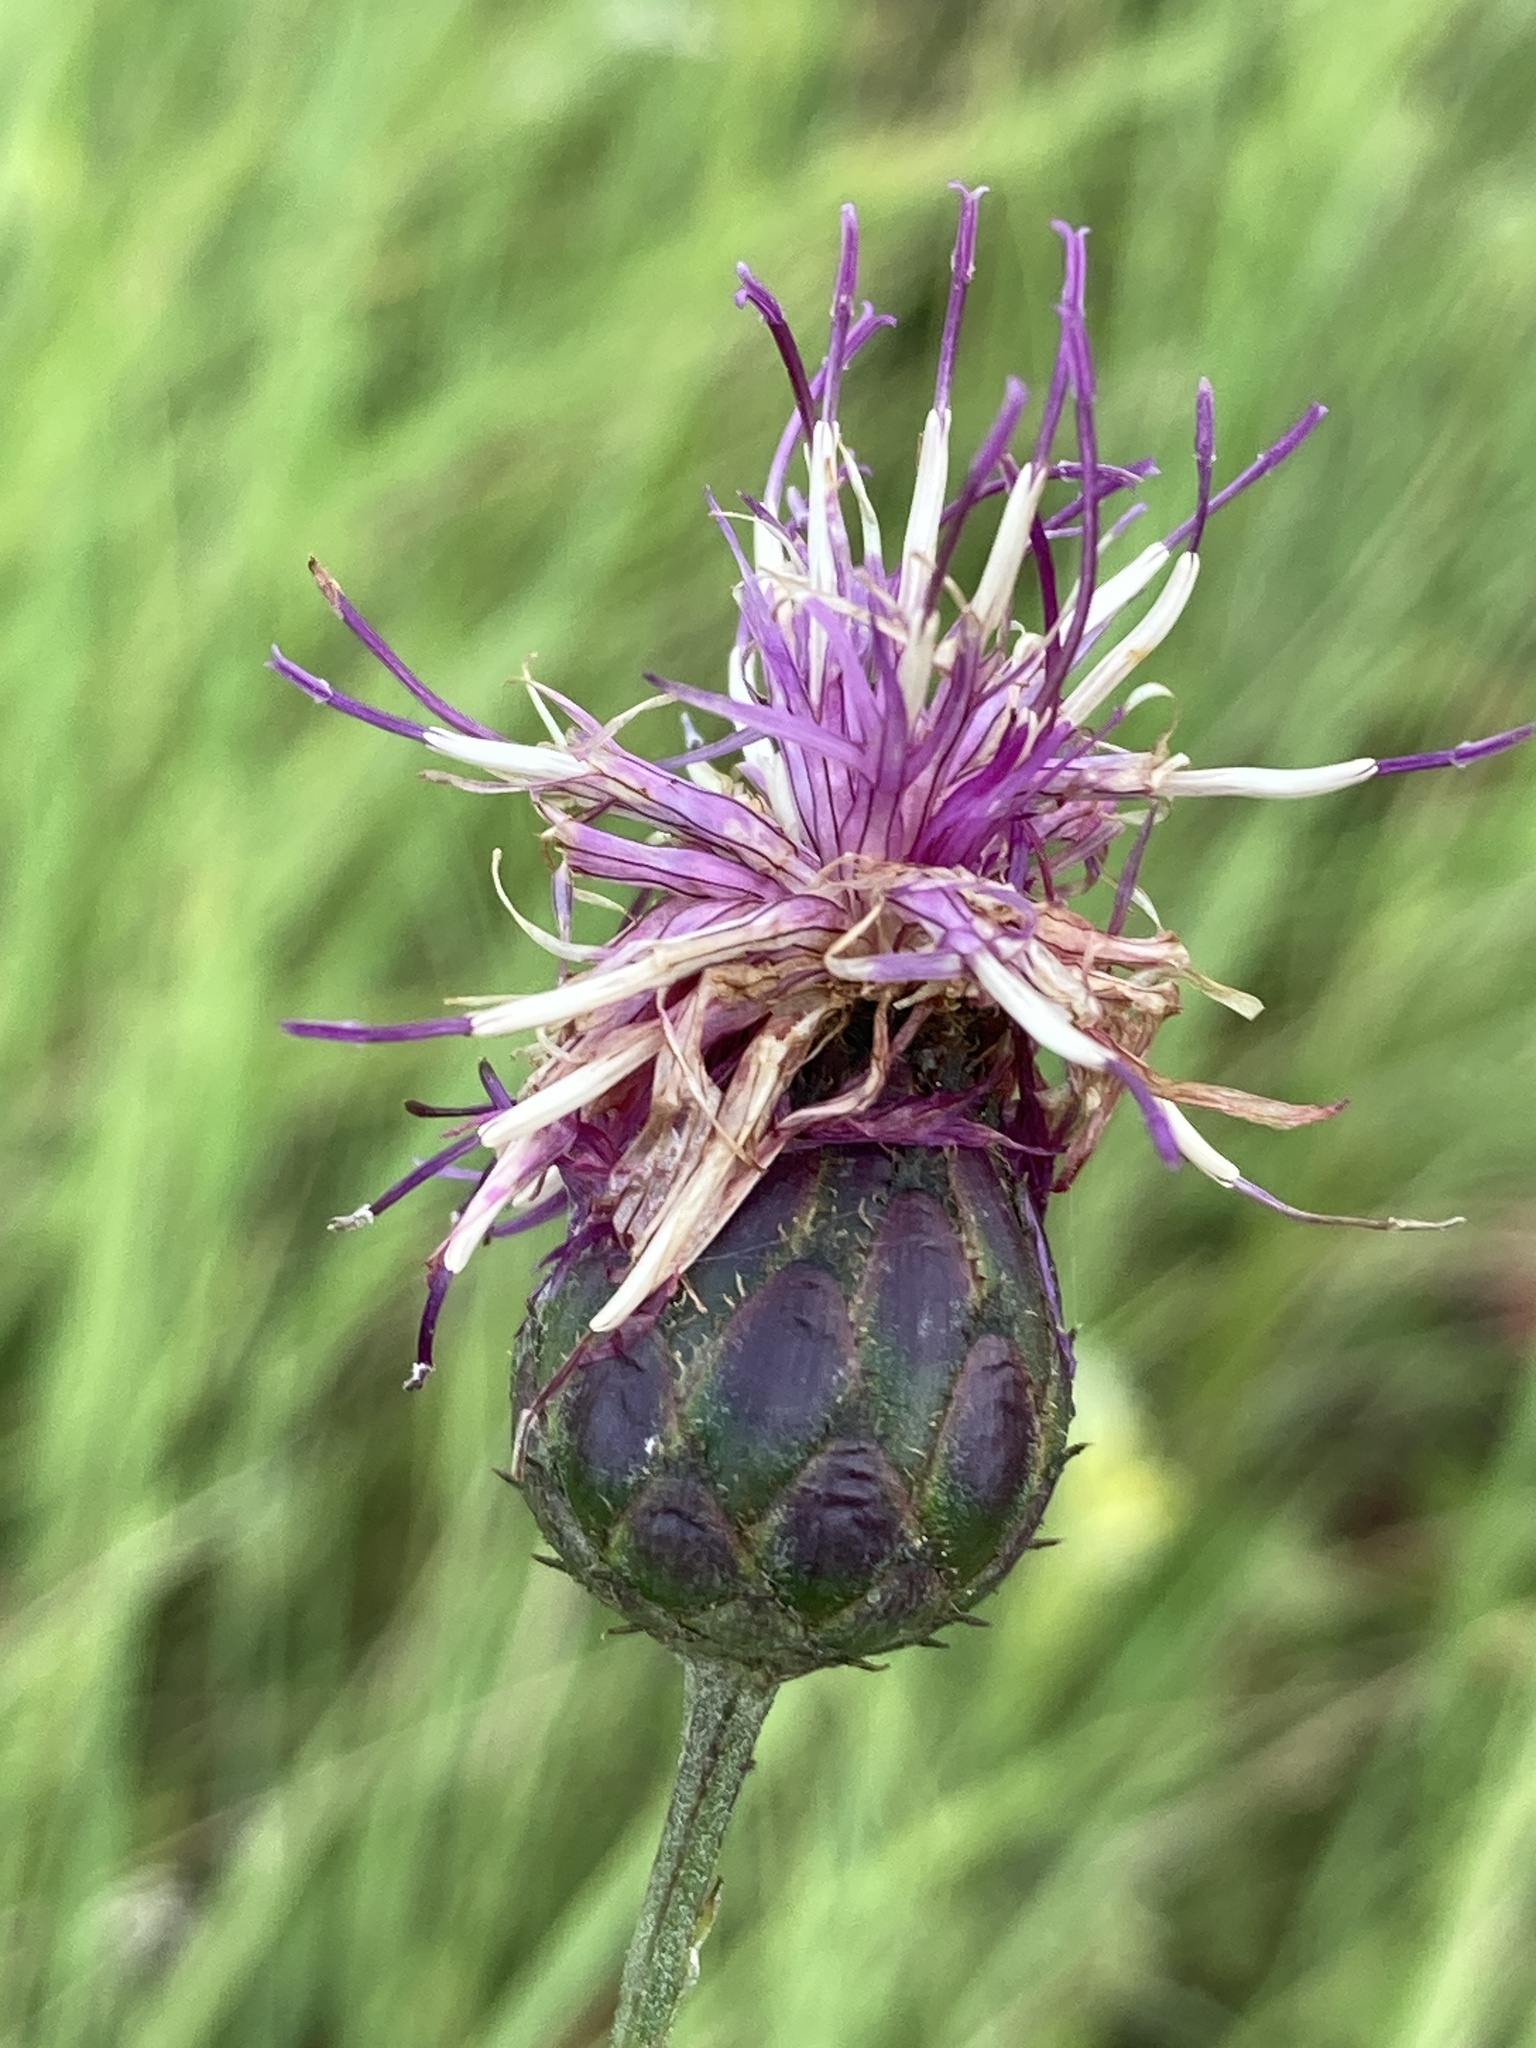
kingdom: Plantae
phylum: Tracheophyta
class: Magnoliopsida
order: Asterales
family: Asteraceae
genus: Centaurea
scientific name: Centaurea scabiosa
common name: Greater knapweed
